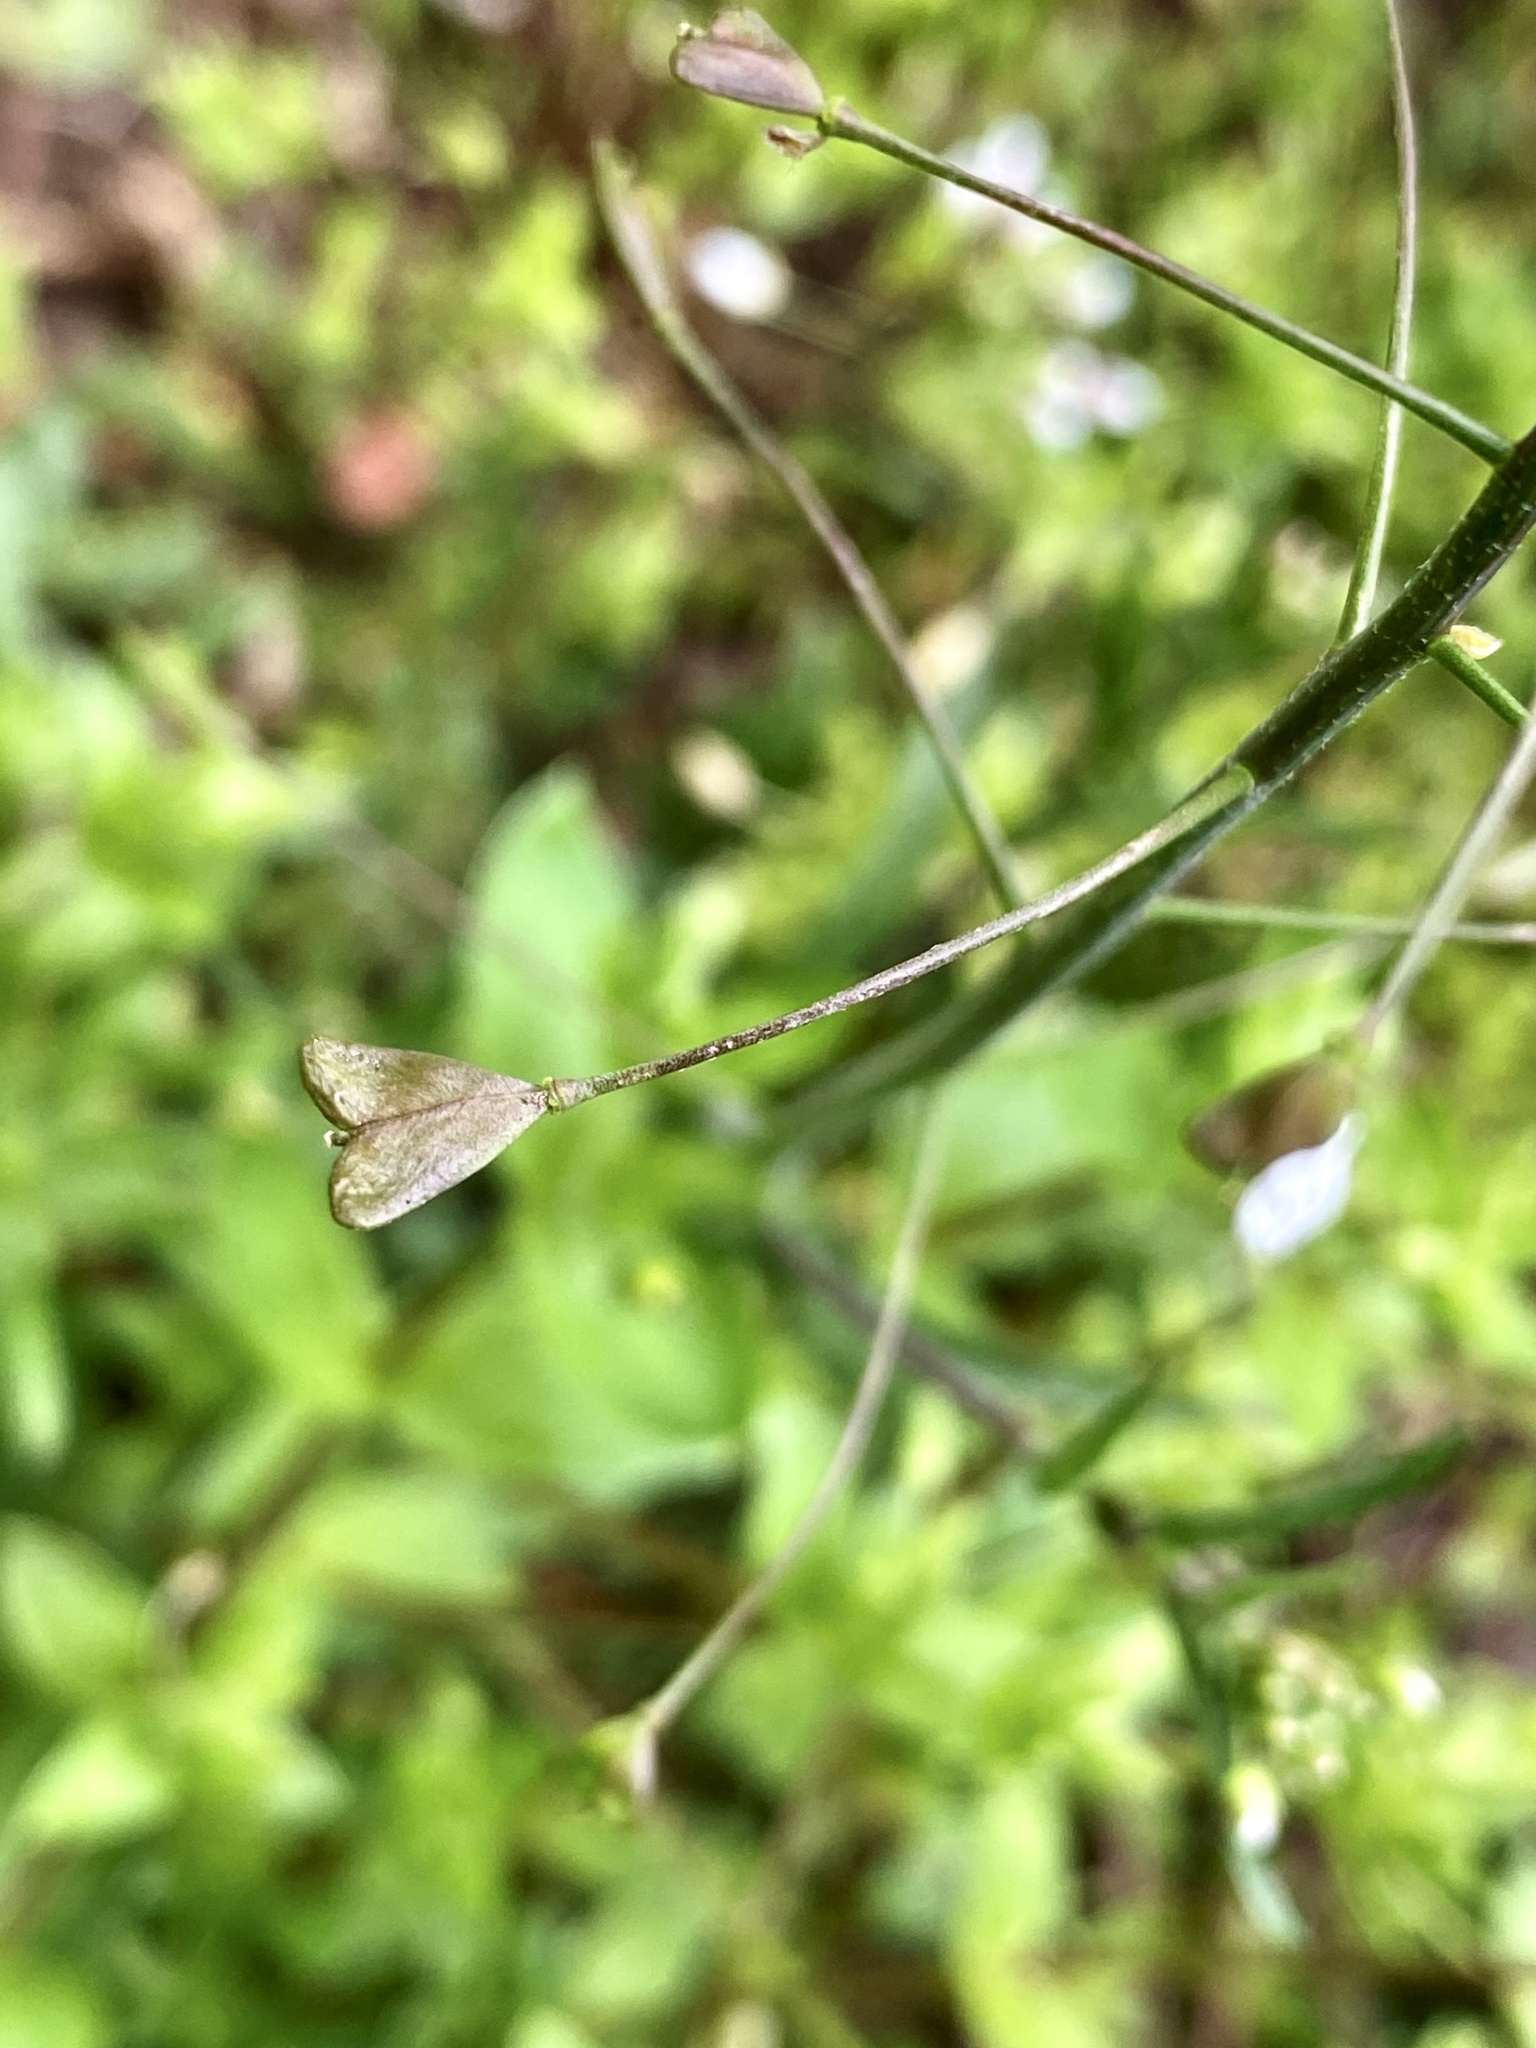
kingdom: Plantae
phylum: Tracheophyta
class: Magnoliopsida
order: Brassicales
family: Brassicaceae
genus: Capsella
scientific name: Capsella bursa-pastoris
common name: Shepherd's purse
